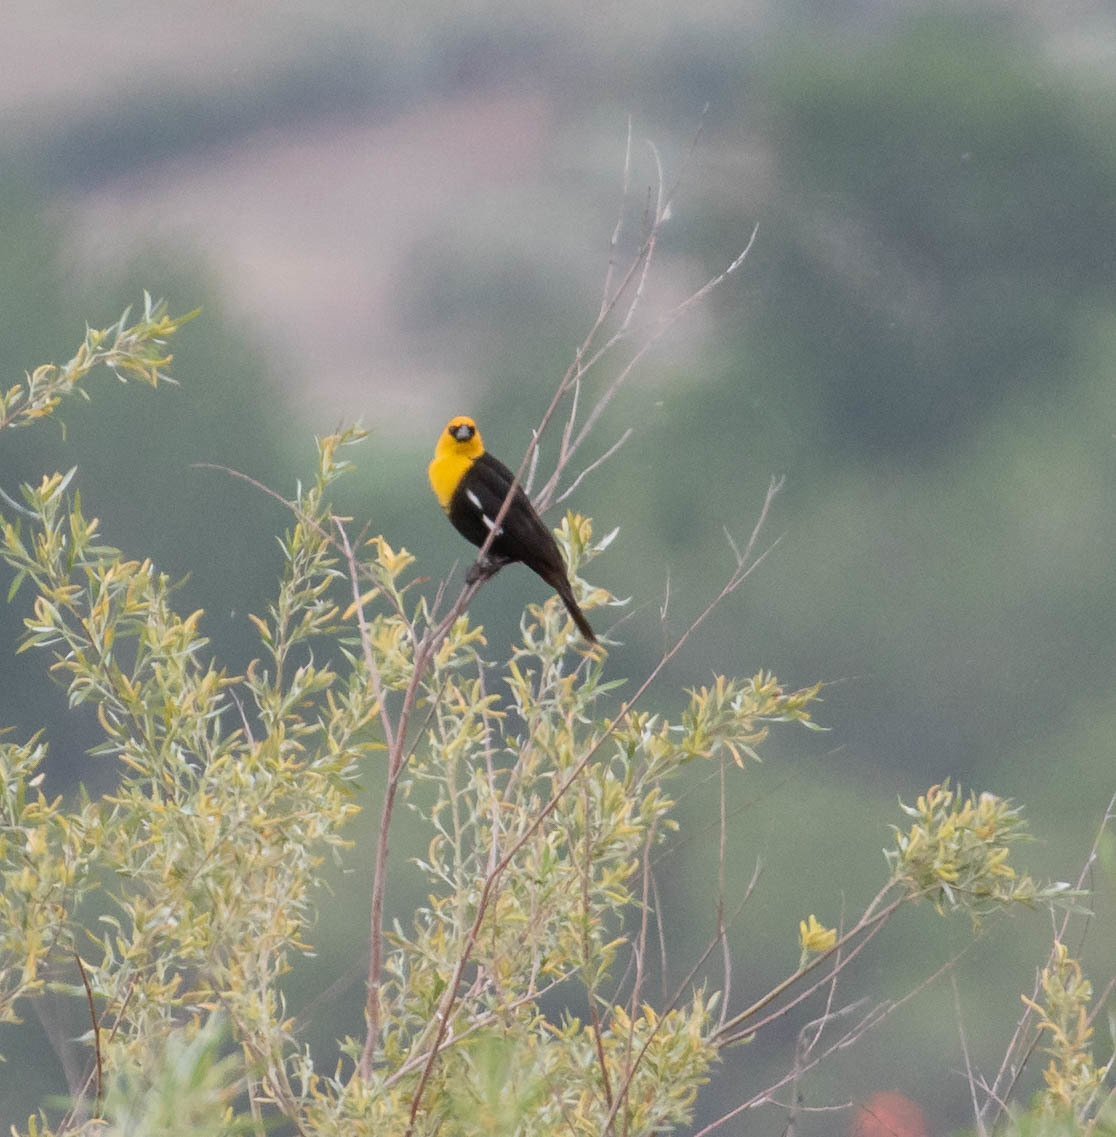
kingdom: Animalia
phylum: Chordata
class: Aves
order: Passeriformes
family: Icteridae
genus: Xanthocephalus
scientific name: Xanthocephalus xanthocephalus
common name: Yellow-headed blackbird
